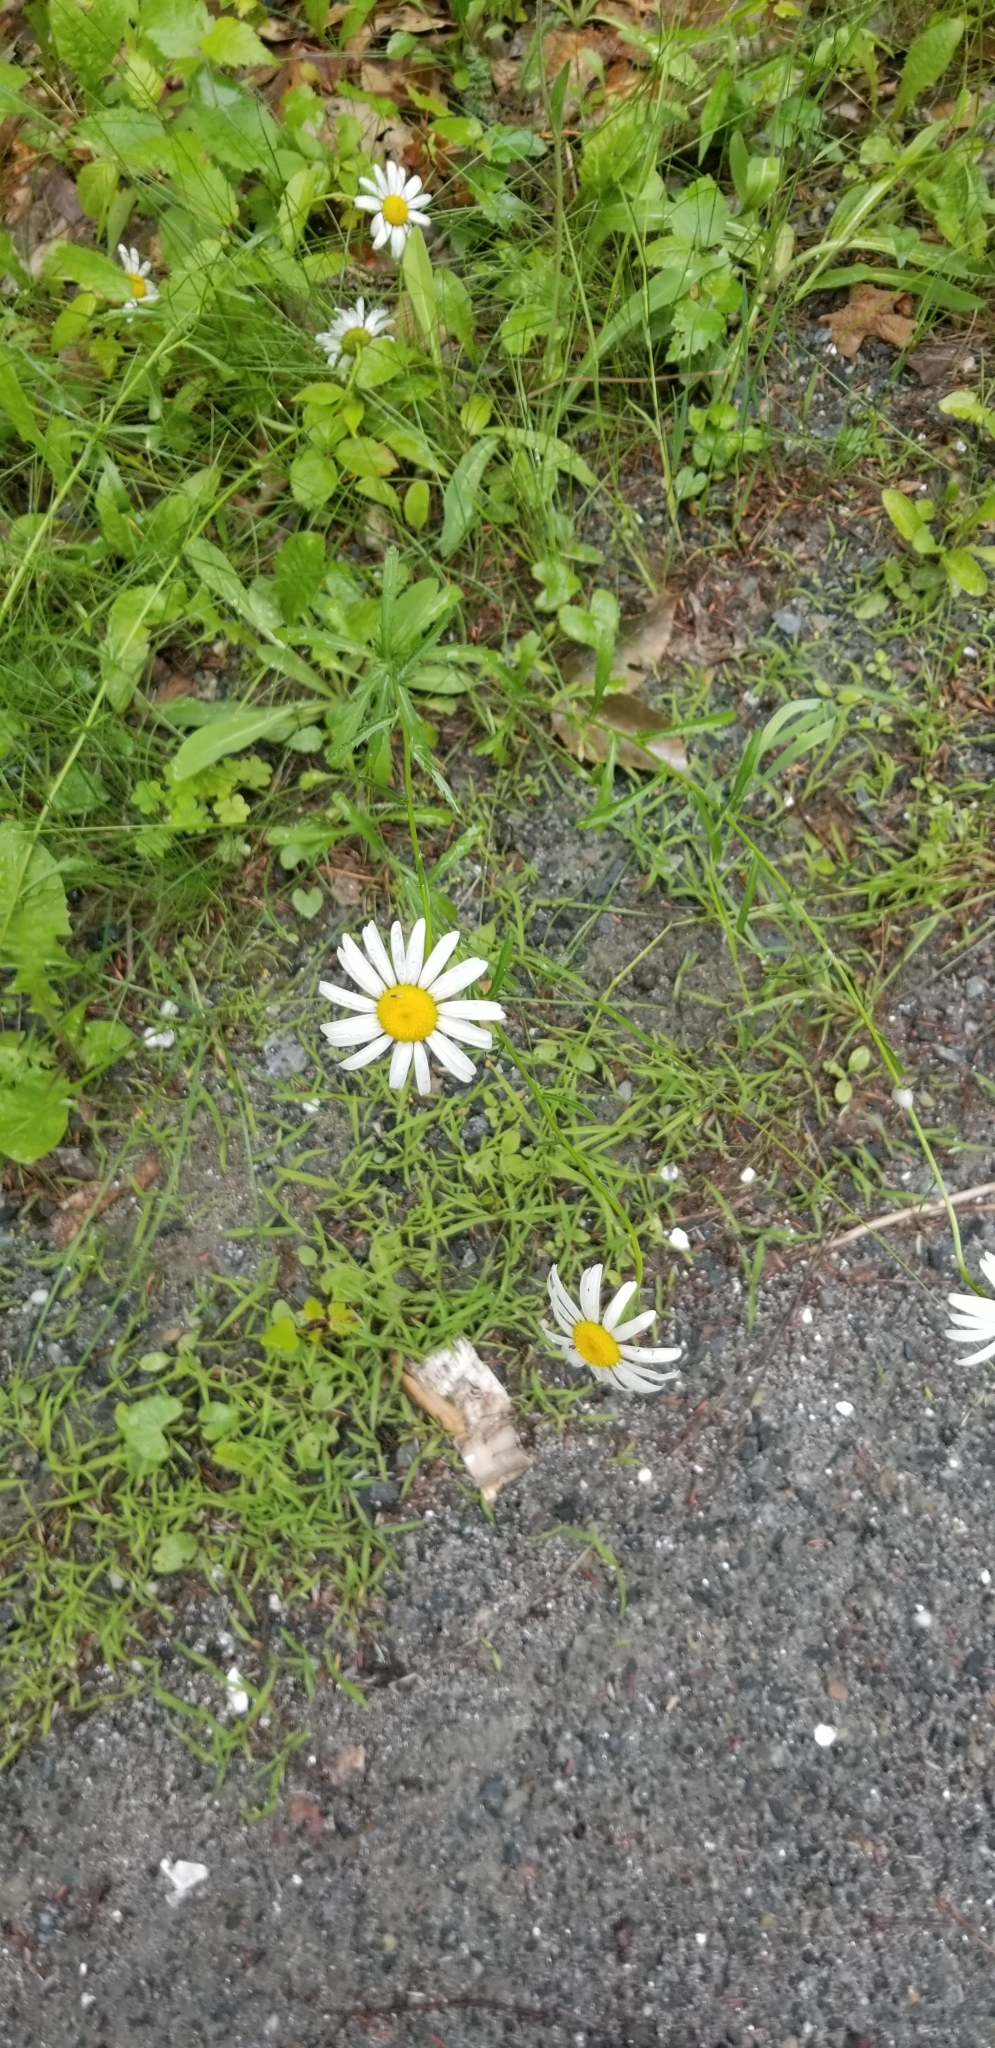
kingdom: Plantae
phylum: Tracheophyta
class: Magnoliopsida
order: Asterales
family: Asteraceae
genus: Leucanthemum
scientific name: Leucanthemum vulgare
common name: Oxeye daisy
